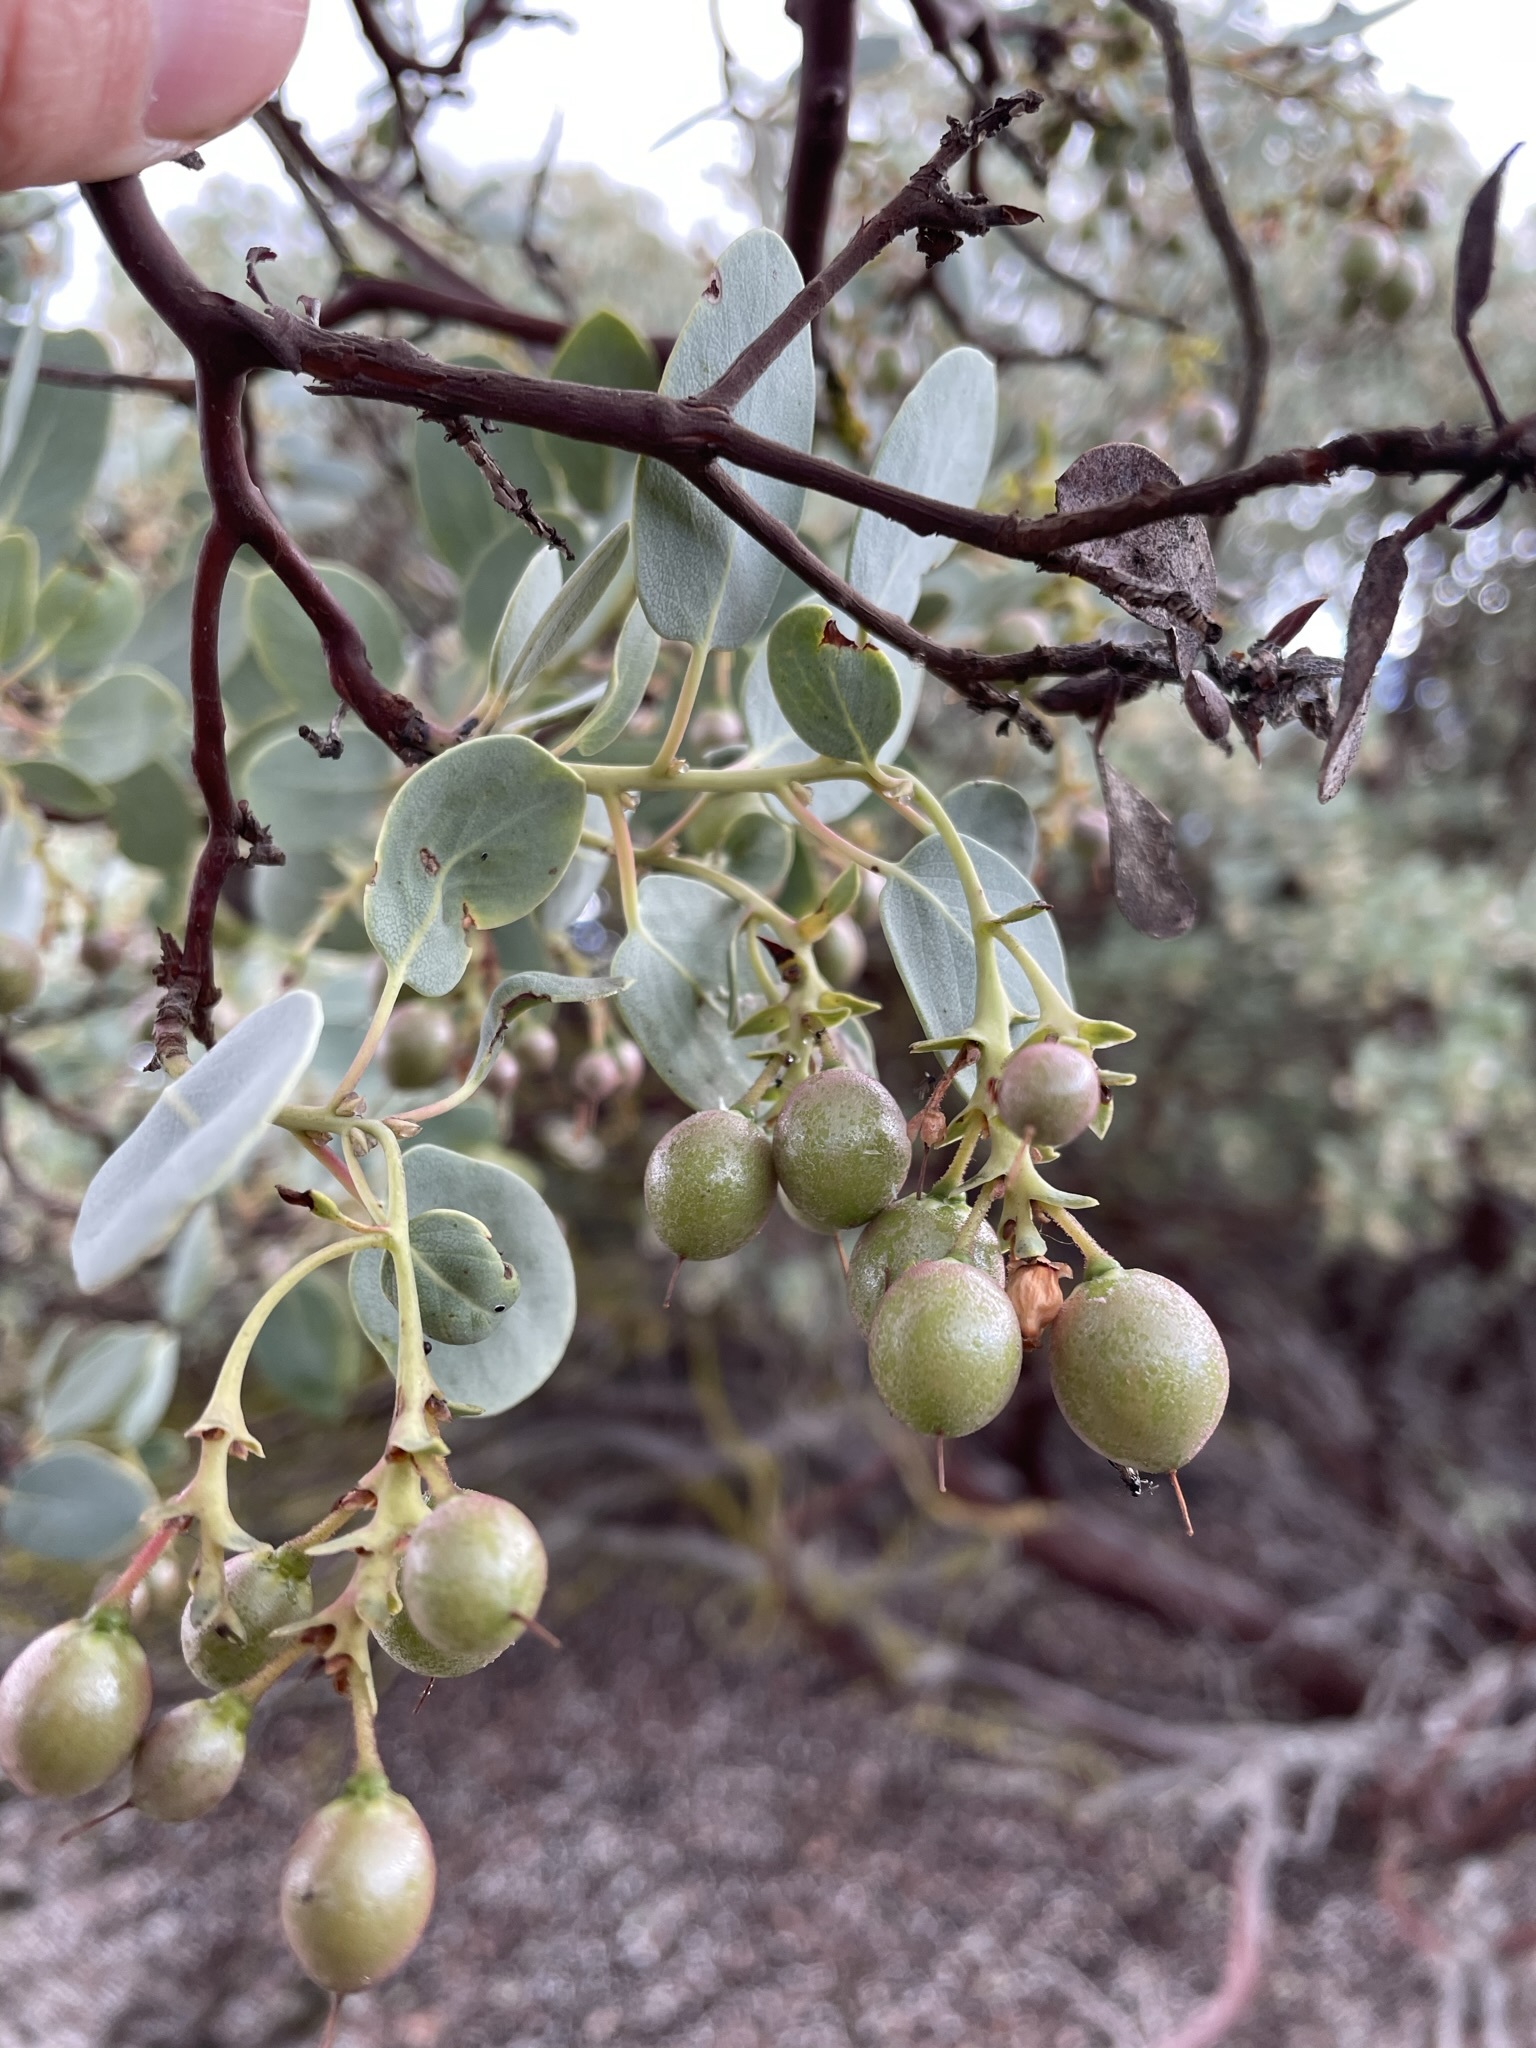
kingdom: Plantae
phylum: Tracheophyta
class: Magnoliopsida
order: Ericales
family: Ericaceae
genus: Arctostaphylos
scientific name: Arctostaphylos glauca
